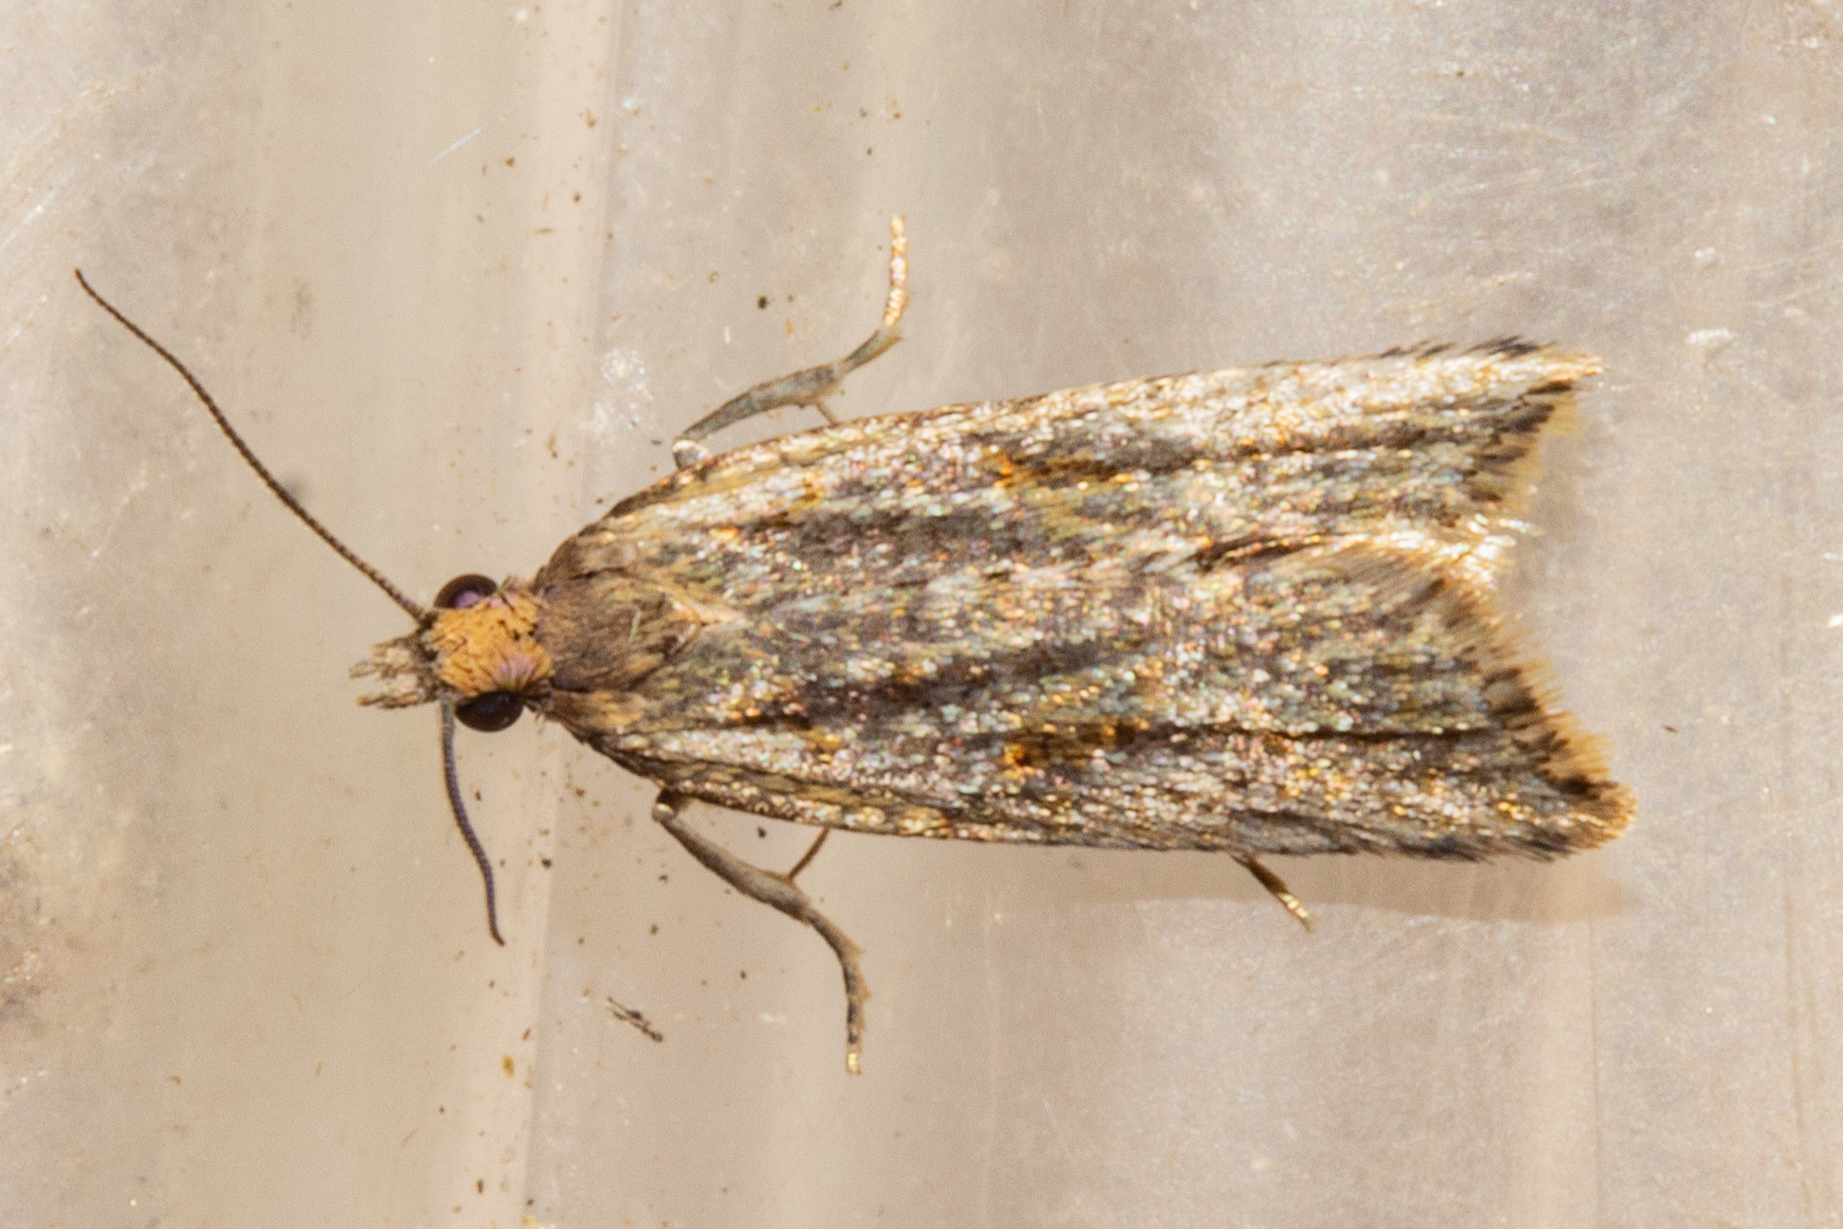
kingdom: Animalia
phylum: Arthropoda
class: Insecta
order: Lepidoptera
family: Tortricidae
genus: Capua
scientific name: Capua semiferana
